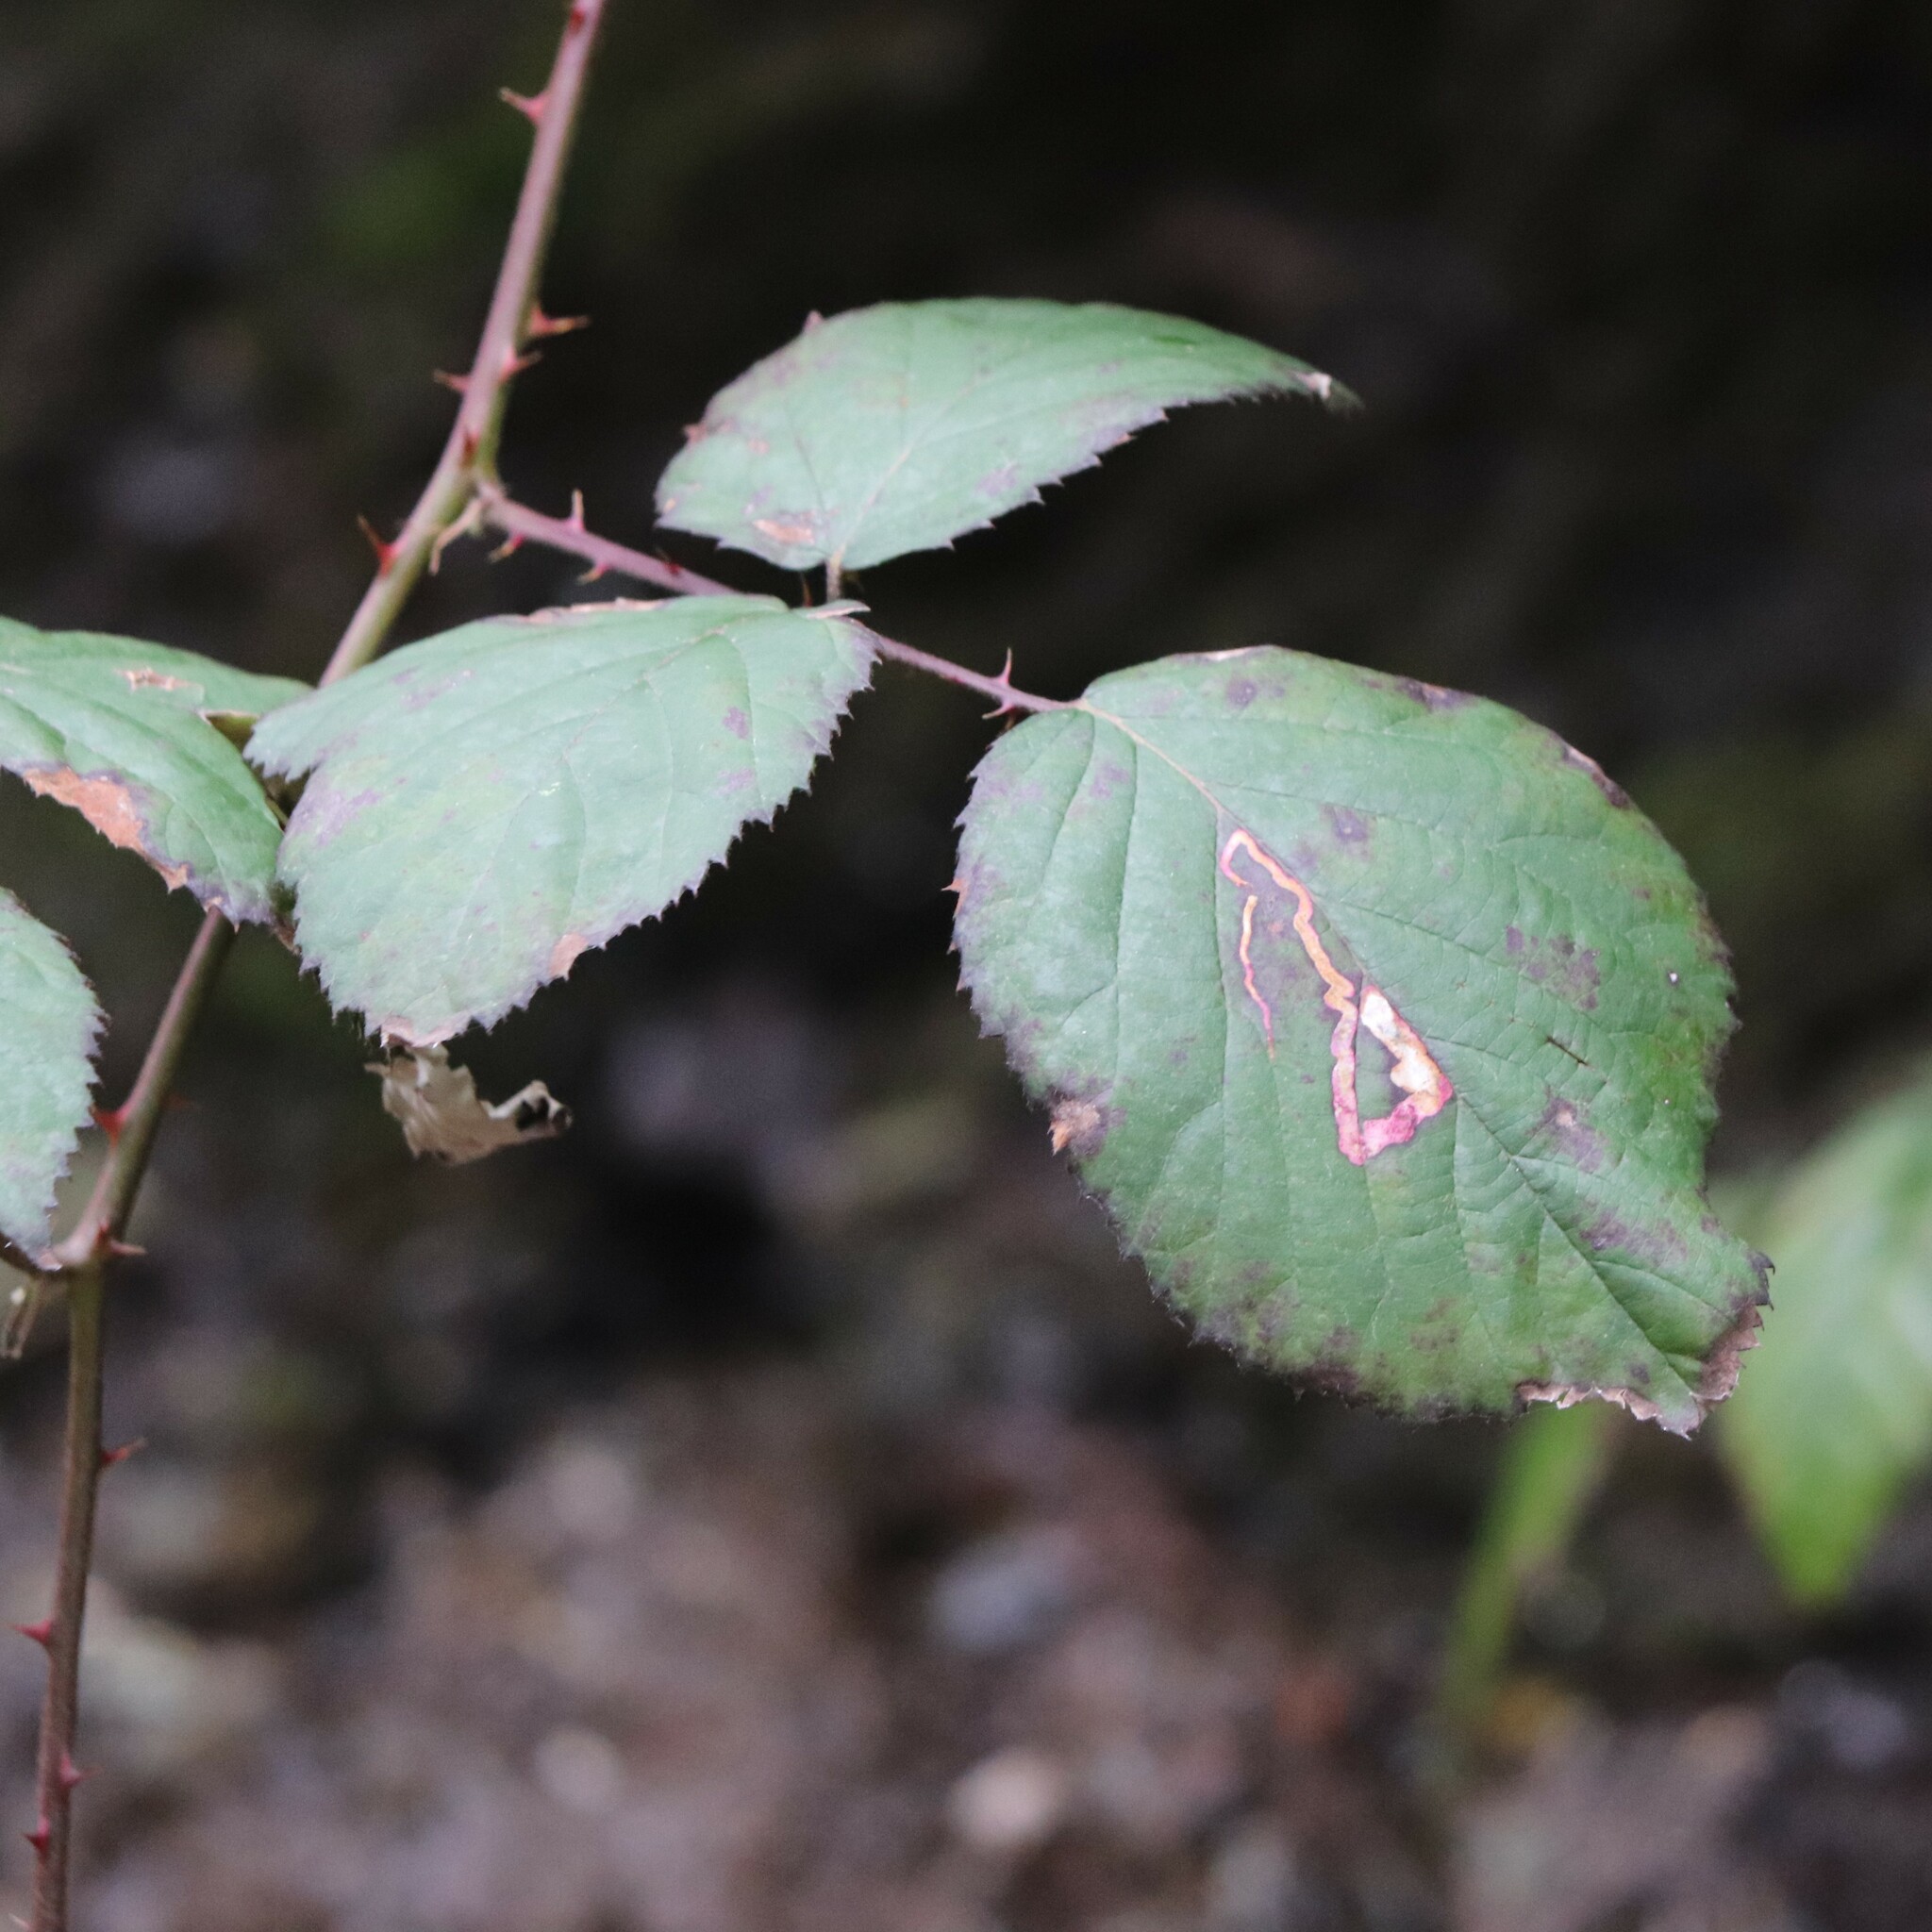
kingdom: Animalia
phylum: Arthropoda
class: Insecta
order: Diptera
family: Agromyzidae
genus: Agromyza
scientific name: Agromyza vockerothi
